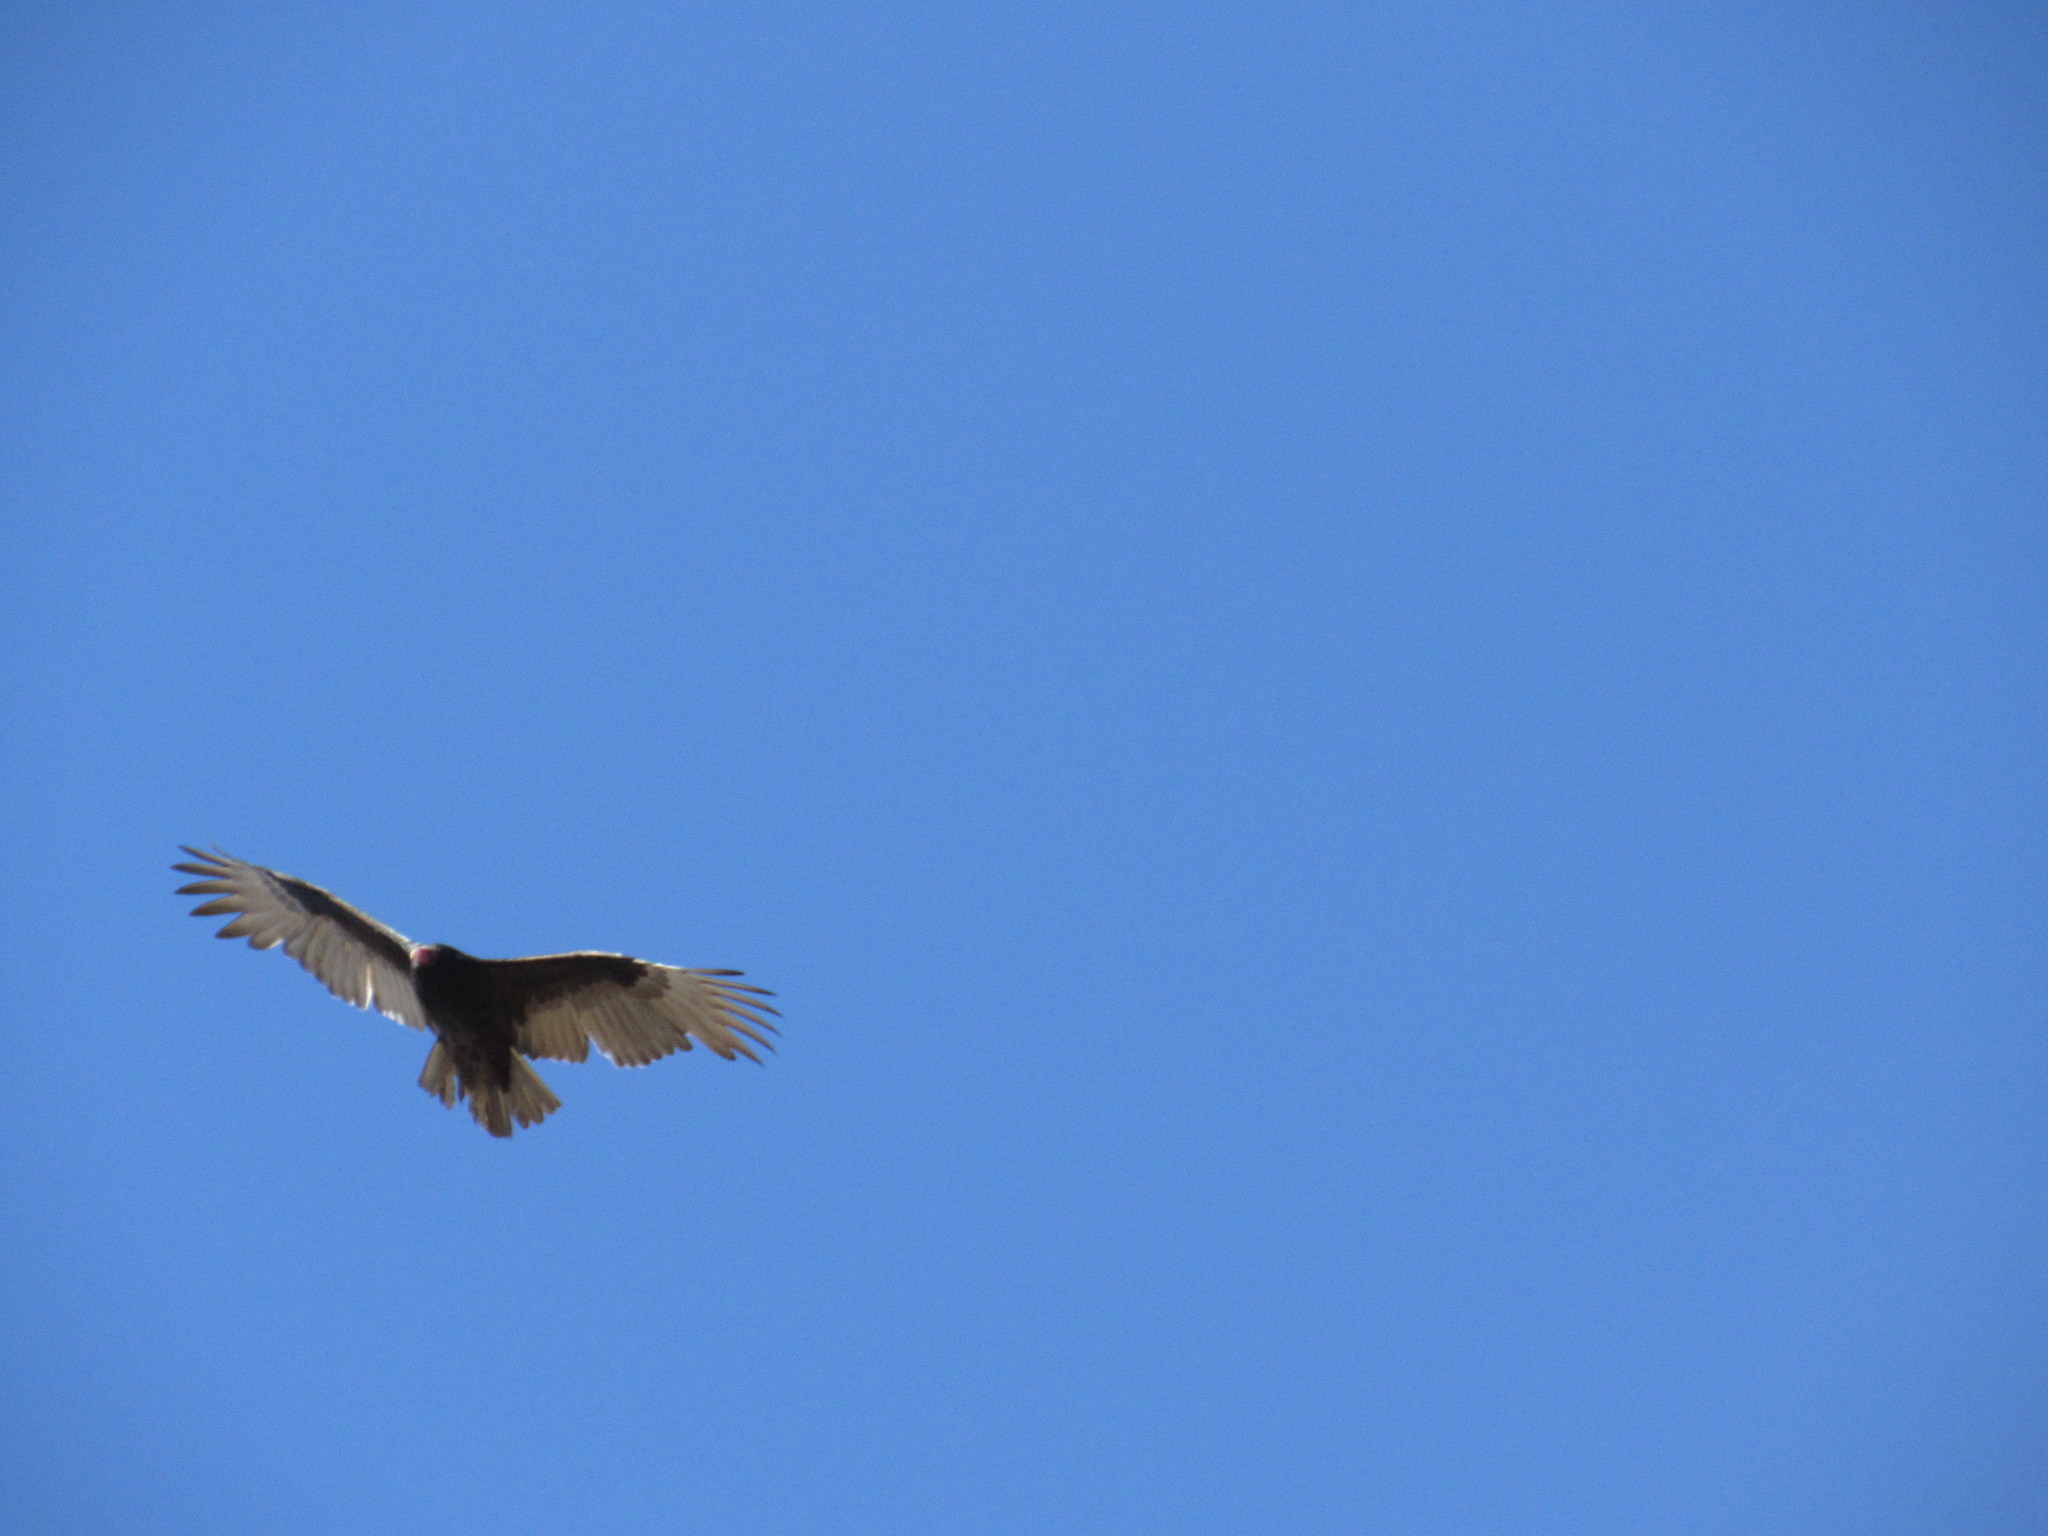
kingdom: Animalia
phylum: Chordata
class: Aves
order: Accipitriformes
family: Cathartidae
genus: Cathartes
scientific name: Cathartes aura
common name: Turkey vulture
